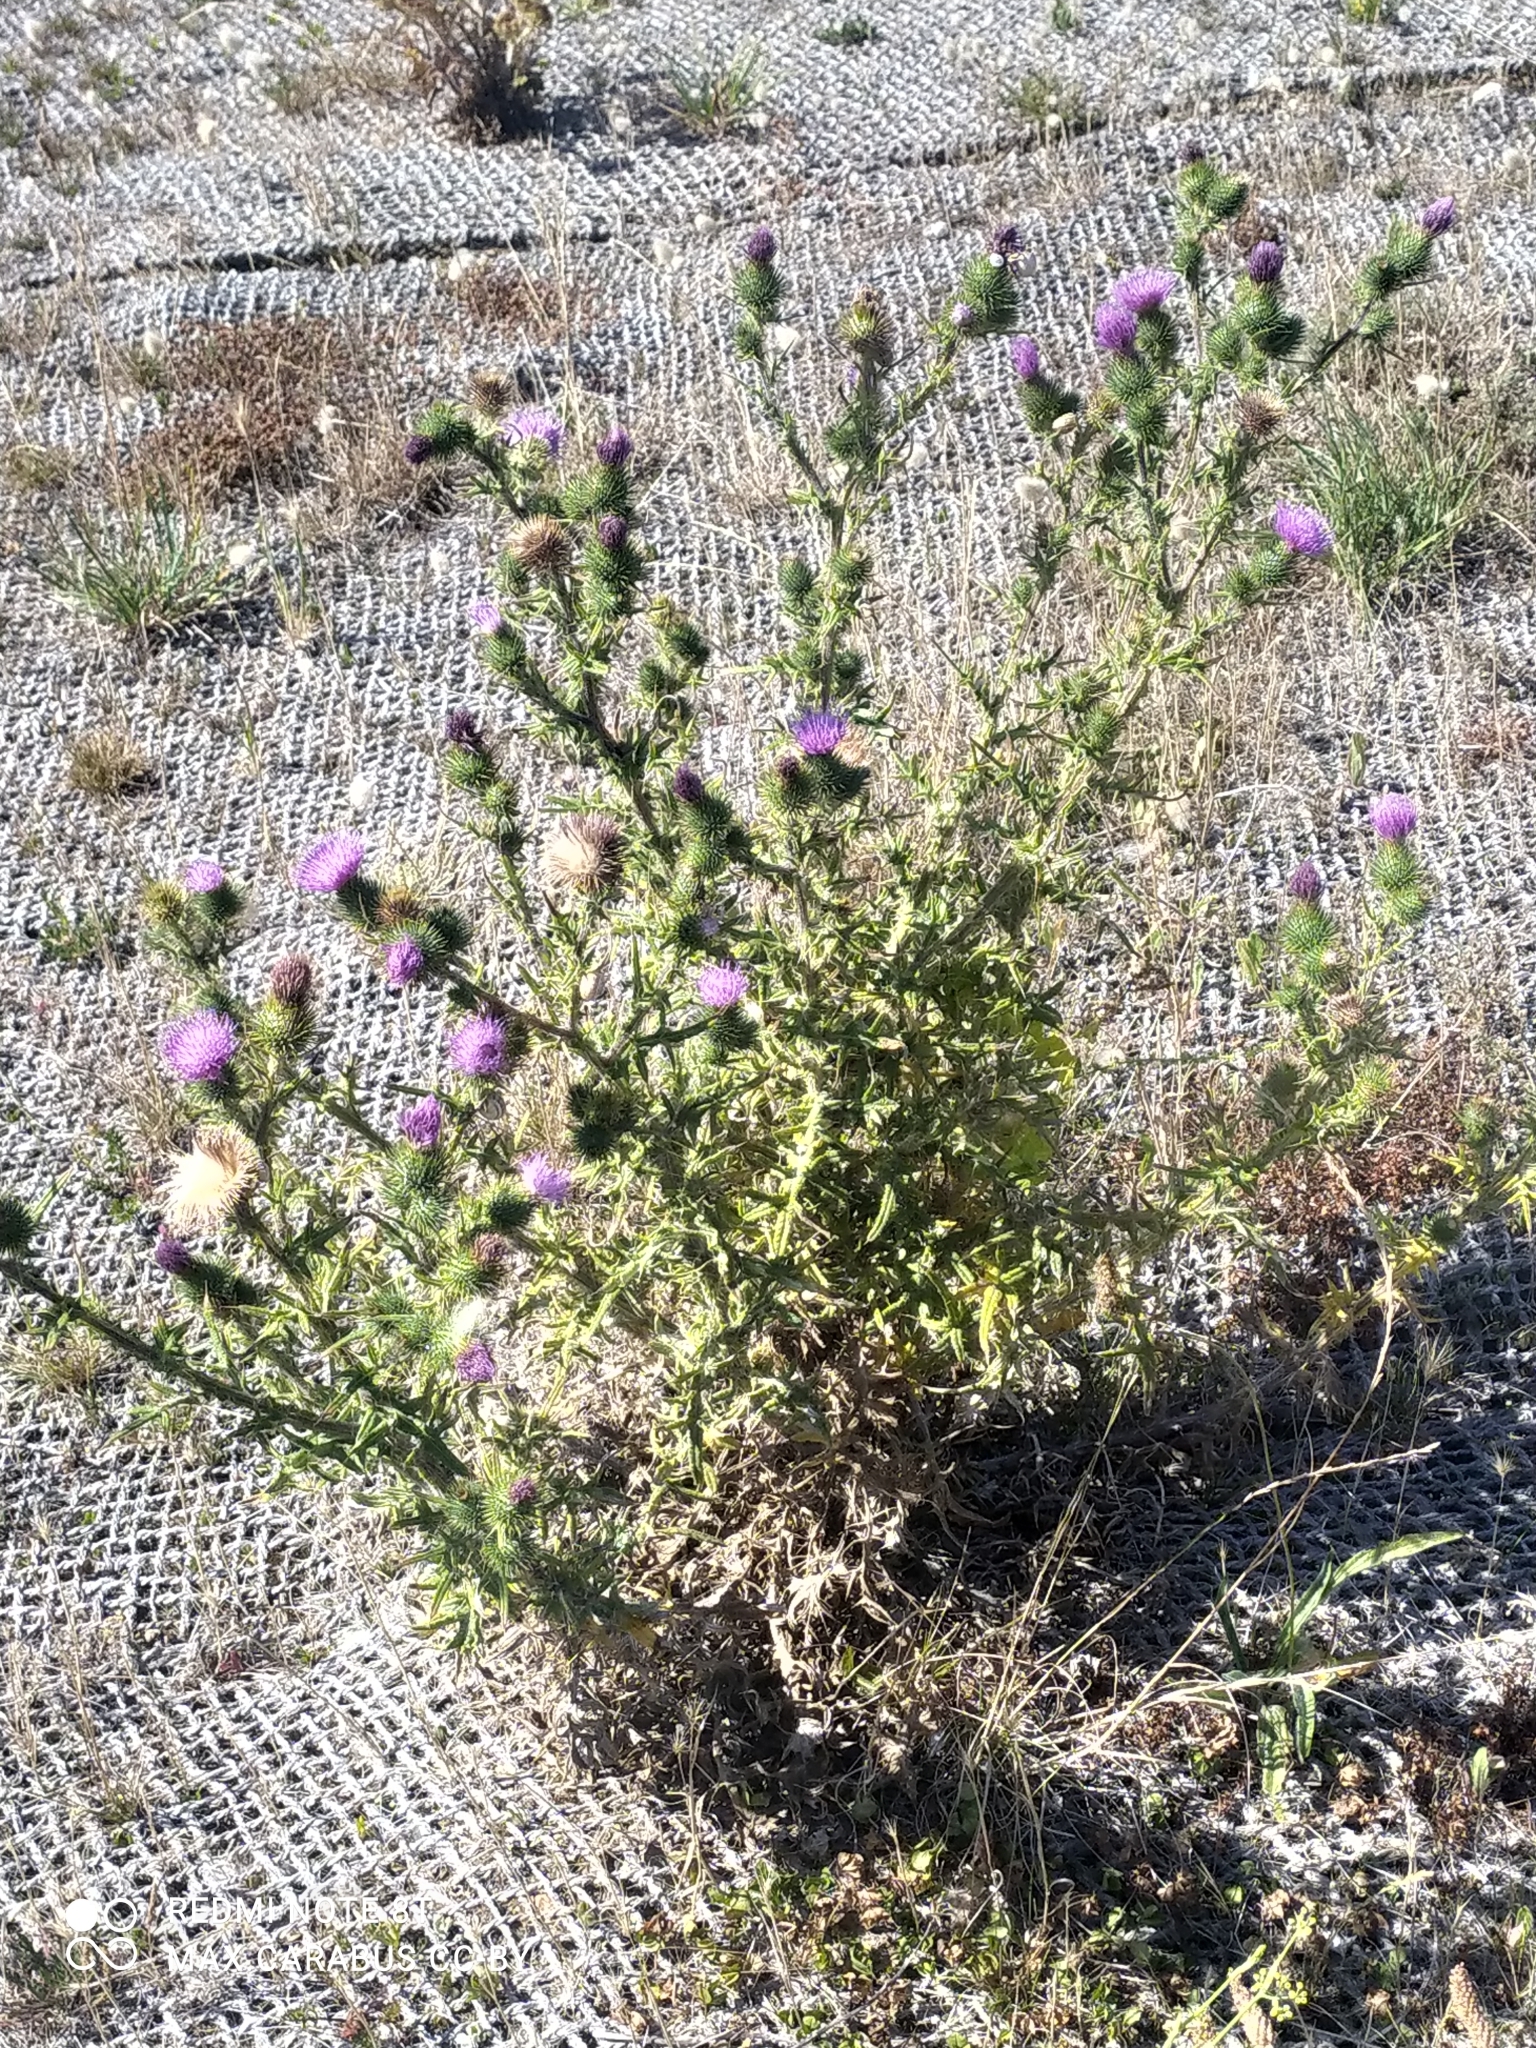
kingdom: Plantae
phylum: Tracheophyta
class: Magnoliopsida
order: Asterales
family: Asteraceae
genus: Cirsium
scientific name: Cirsium vulgare
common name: Bull thistle
